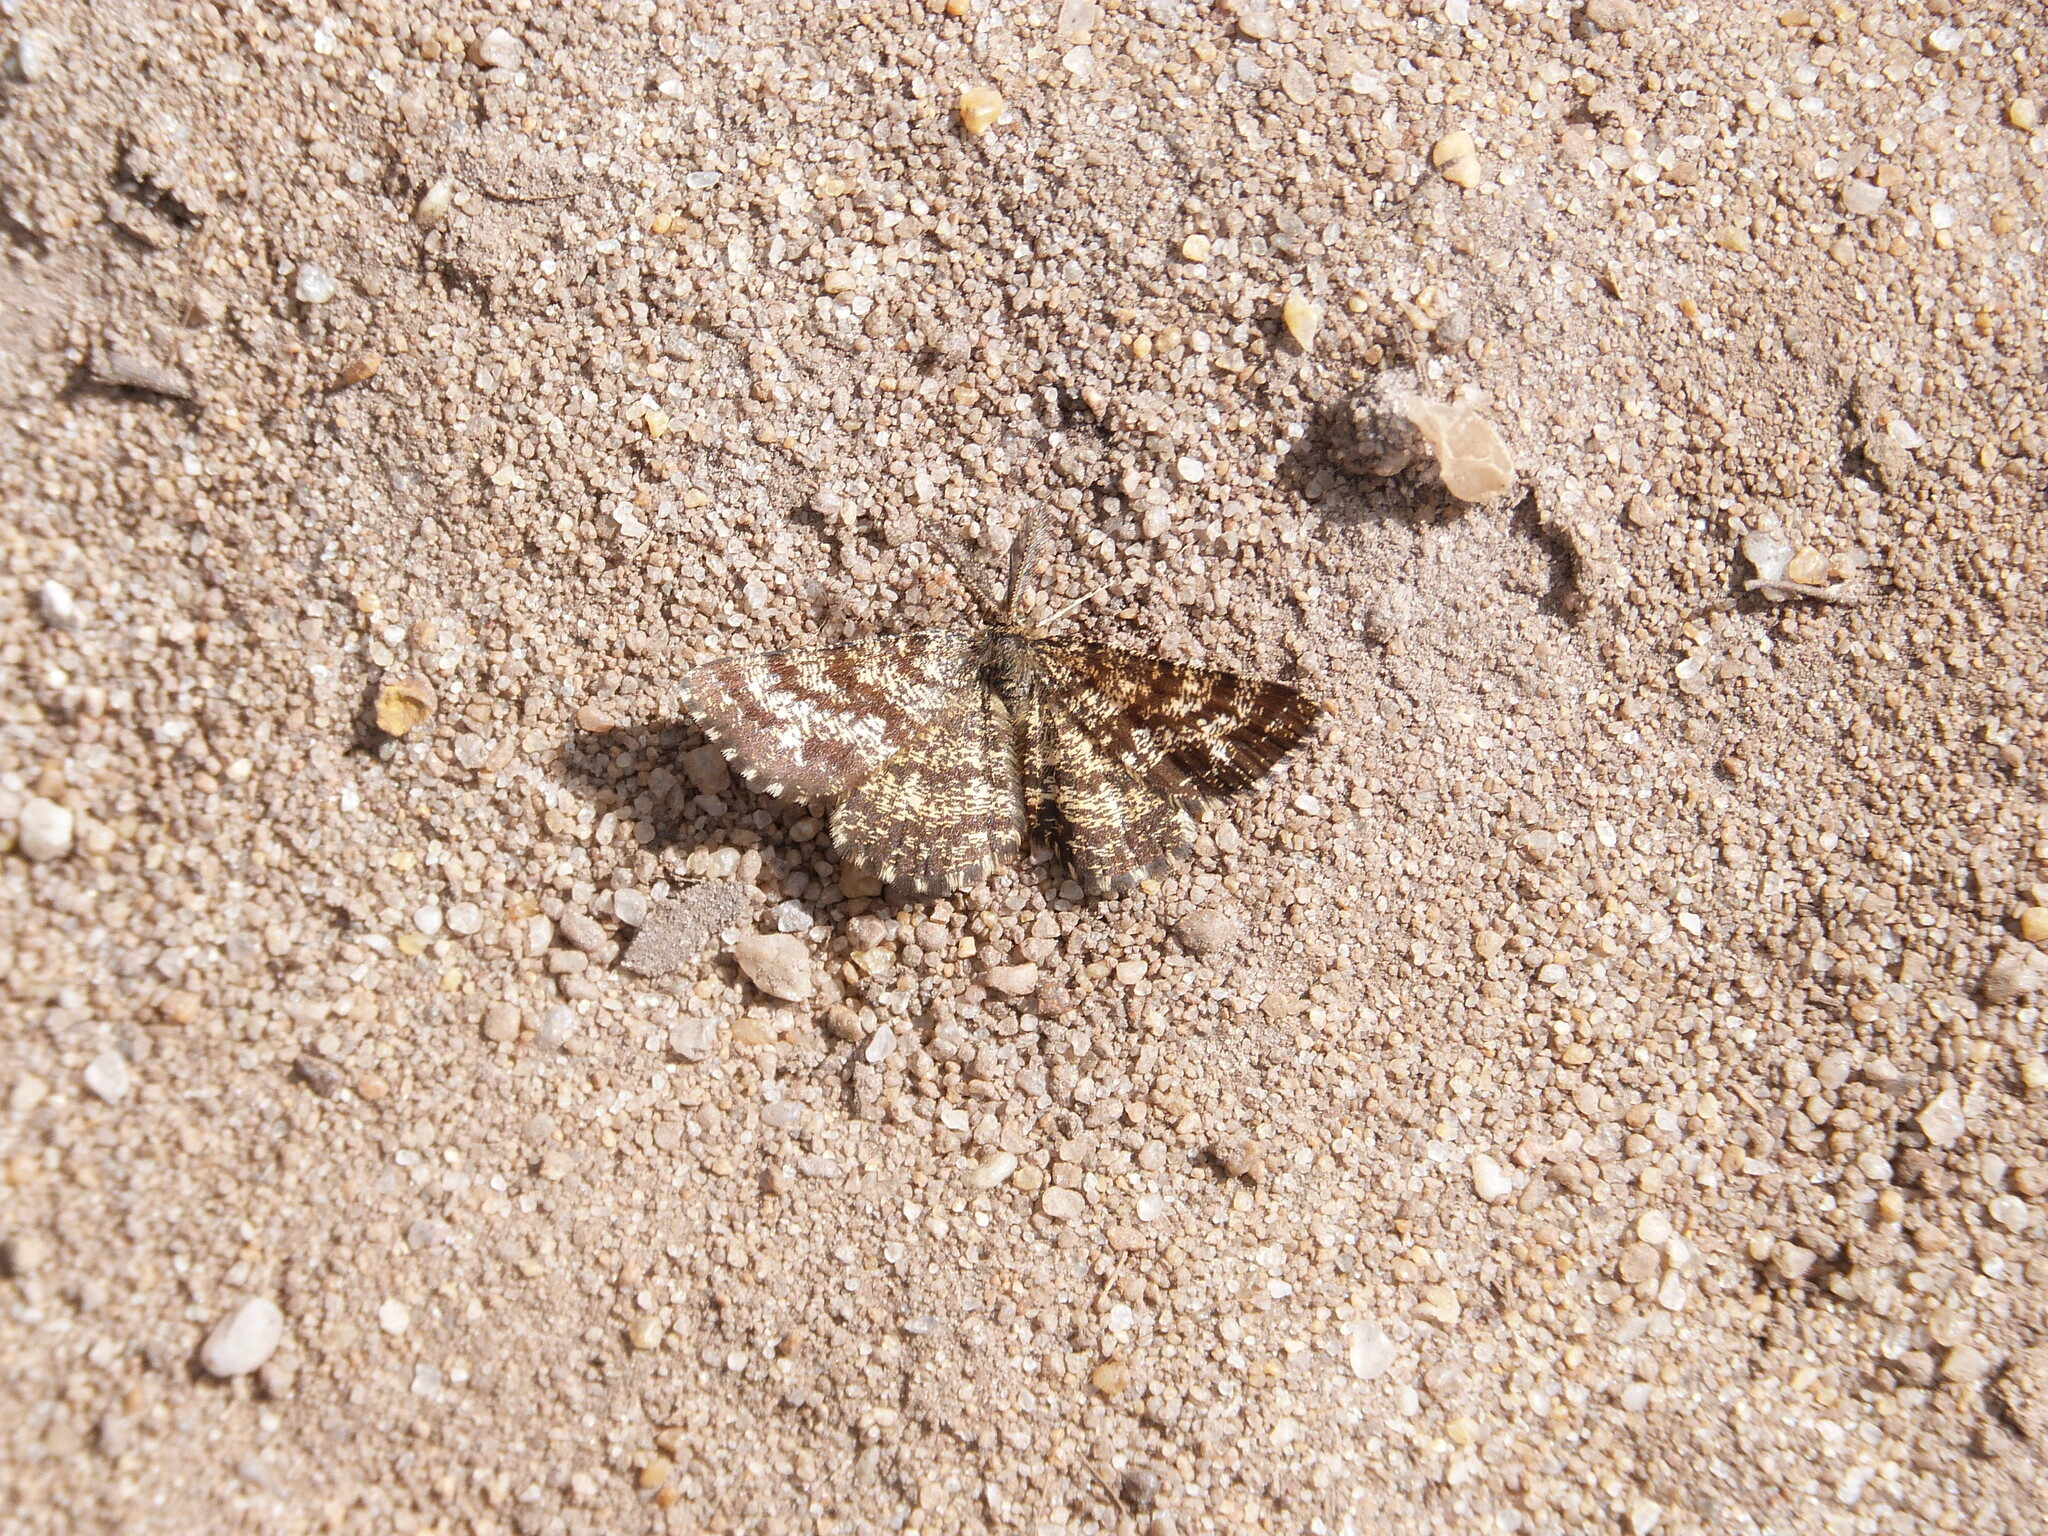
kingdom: Animalia
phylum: Arthropoda
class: Insecta
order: Lepidoptera
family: Geometridae
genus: Ematurga
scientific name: Ematurga atomaria
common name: Common heath
